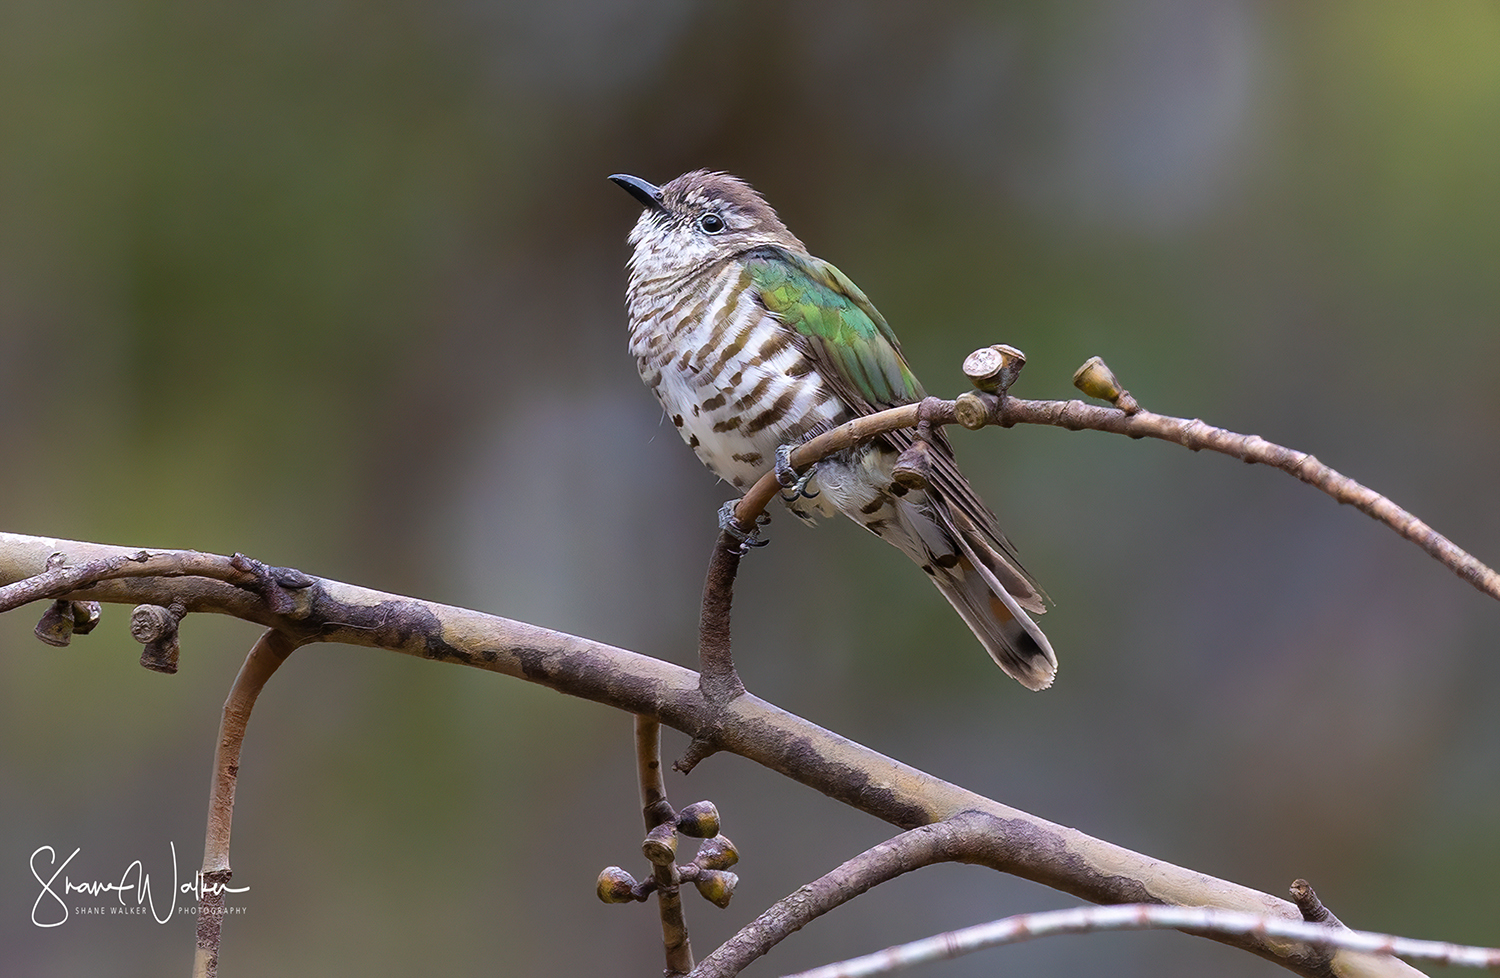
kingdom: Animalia
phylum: Chordata
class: Aves
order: Cuculiformes
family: Cuculidae
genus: Chrysococcyx
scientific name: Chrysococcyx lucidus
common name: Shining bronze cuckoo
